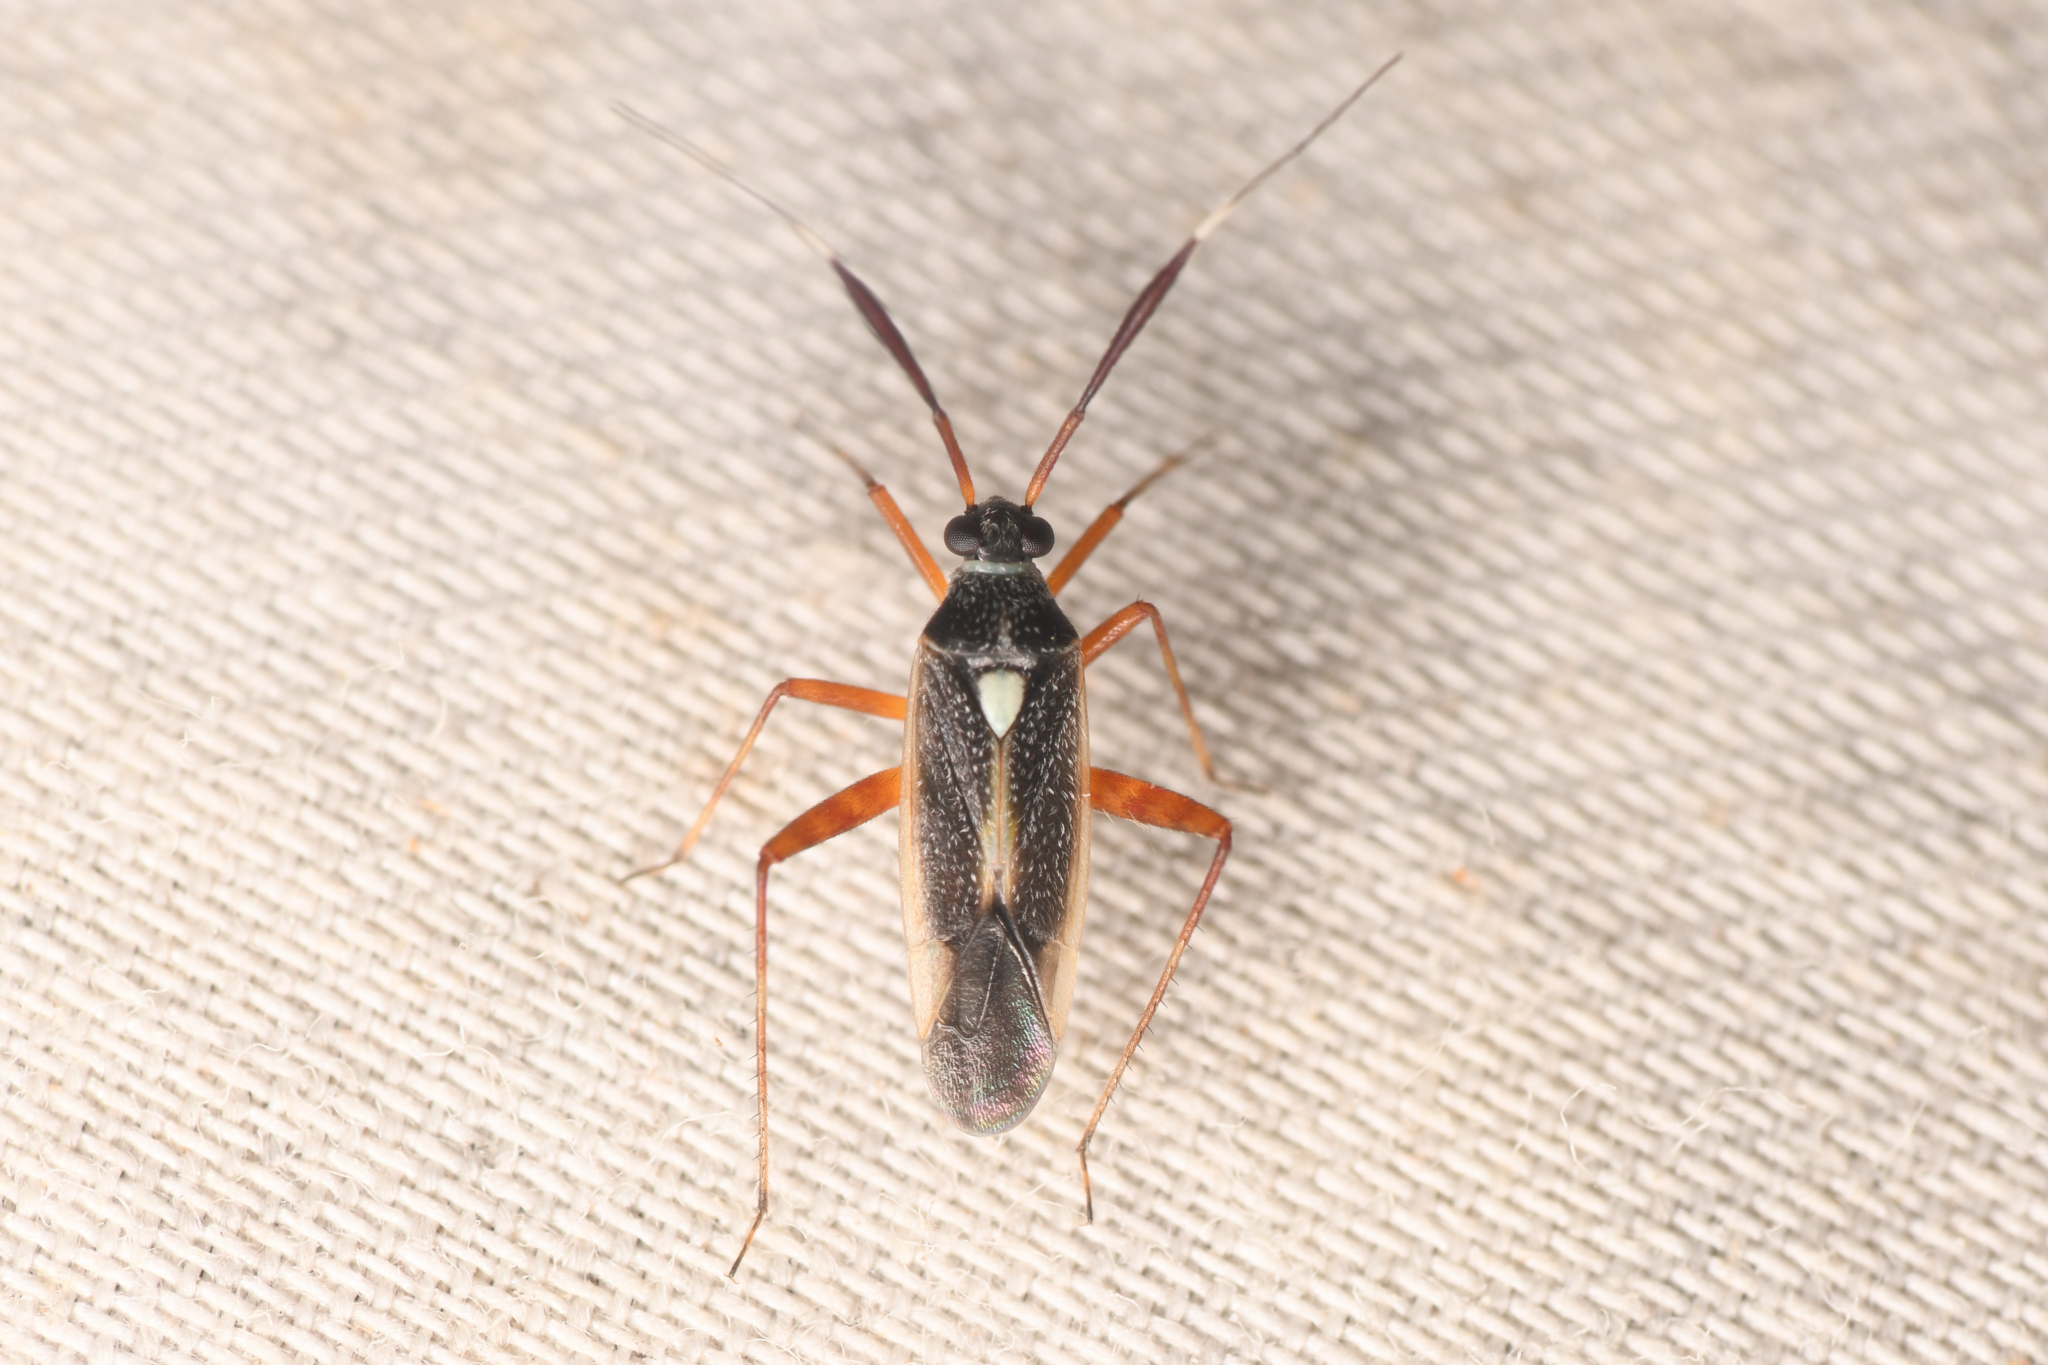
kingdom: Animalia
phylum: Arthropoda
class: Insecta
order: Hemiptera
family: Miridae
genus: Garganus
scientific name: Garganus albidivittis
